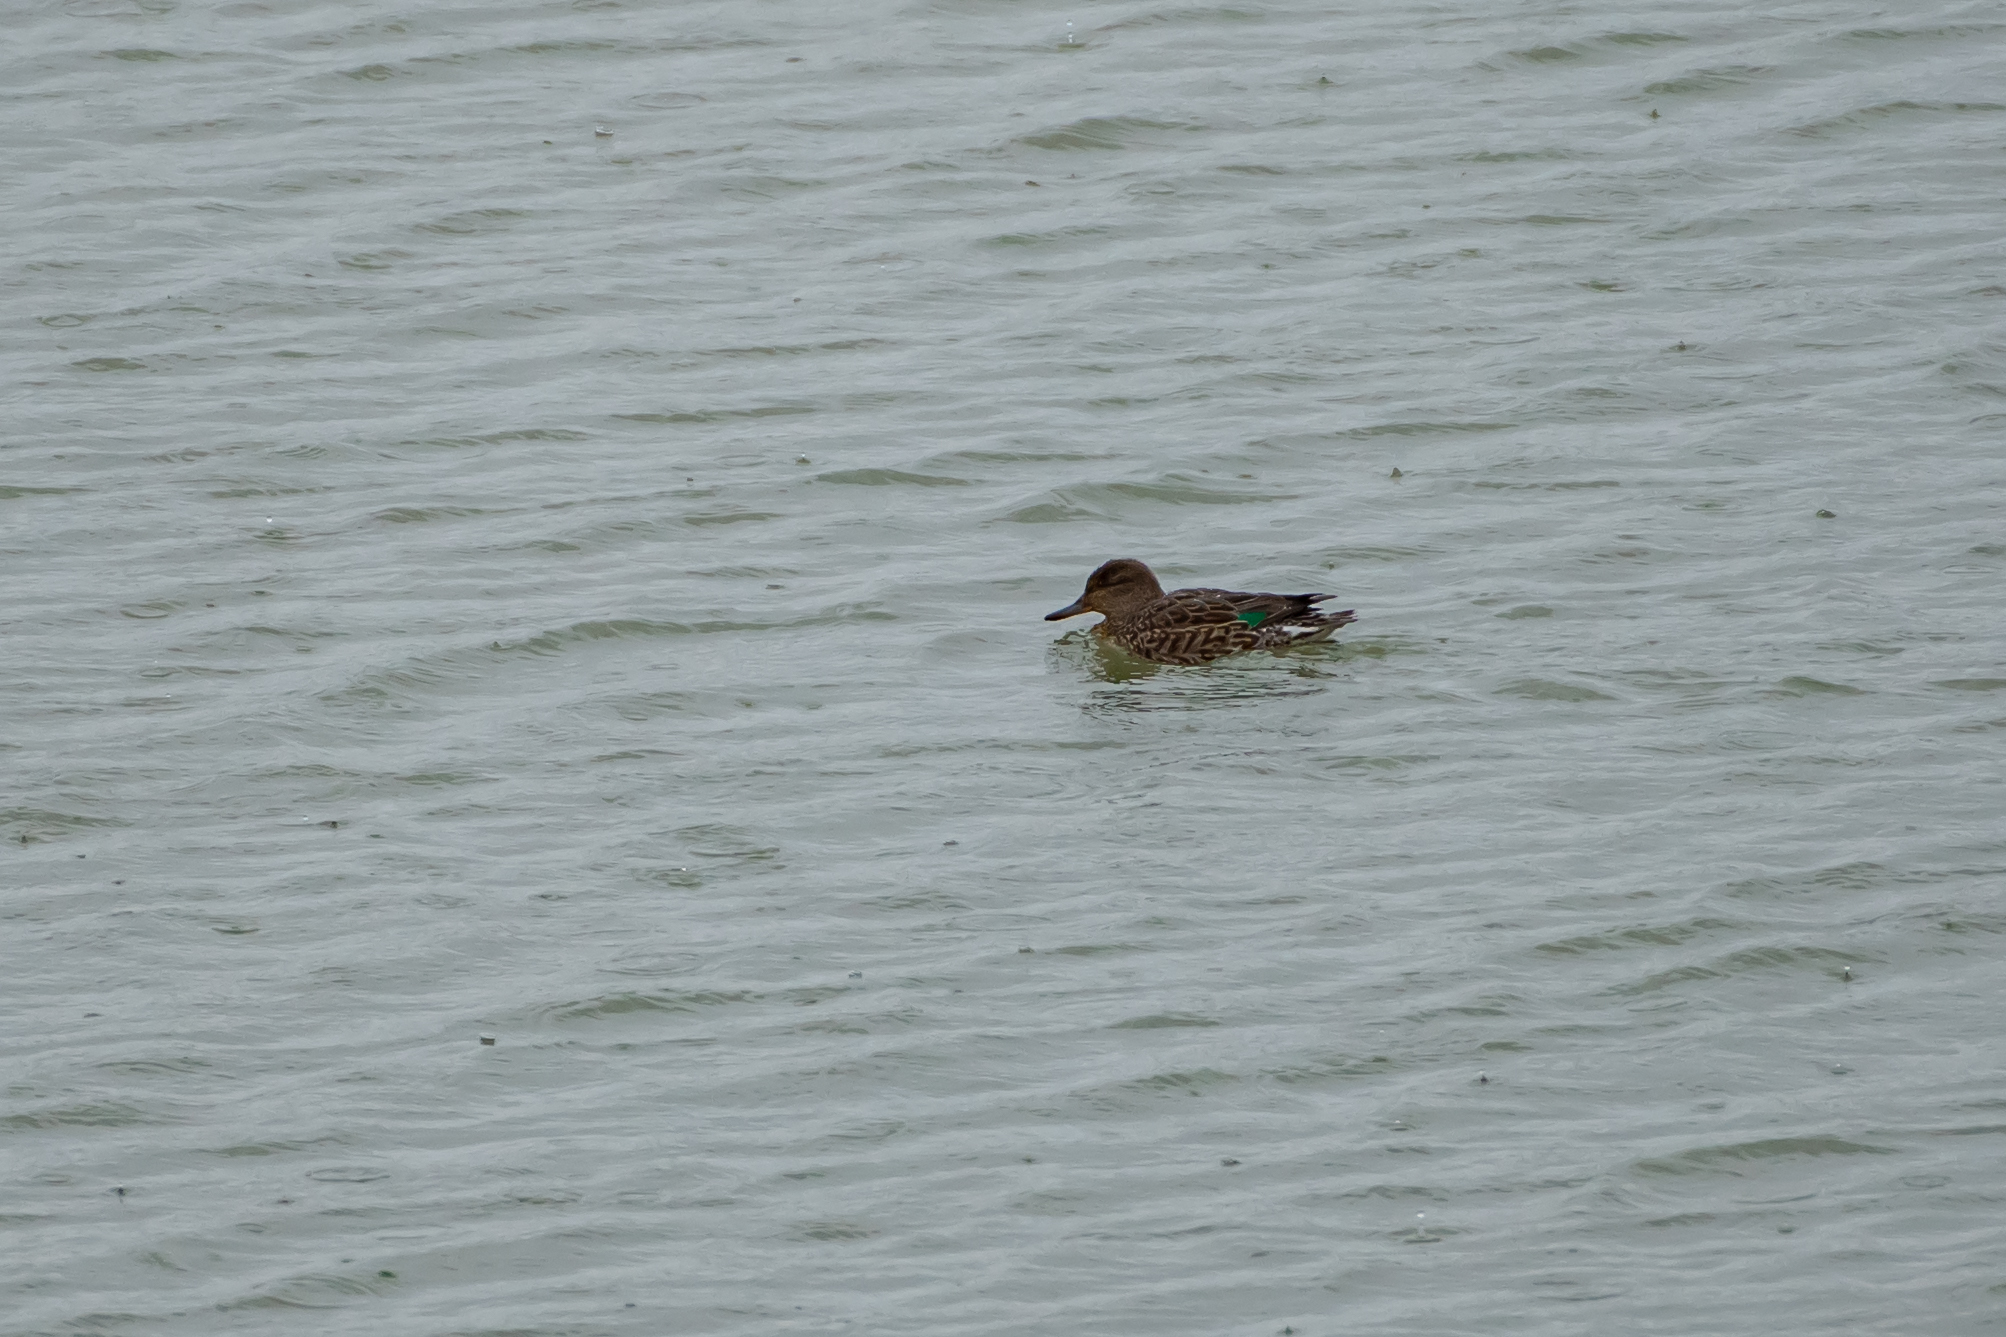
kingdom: Animalia
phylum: Chordata
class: Aves
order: Anseriformes
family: Anatidae
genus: Anas
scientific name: Anas crecca
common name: Eurasian teal
